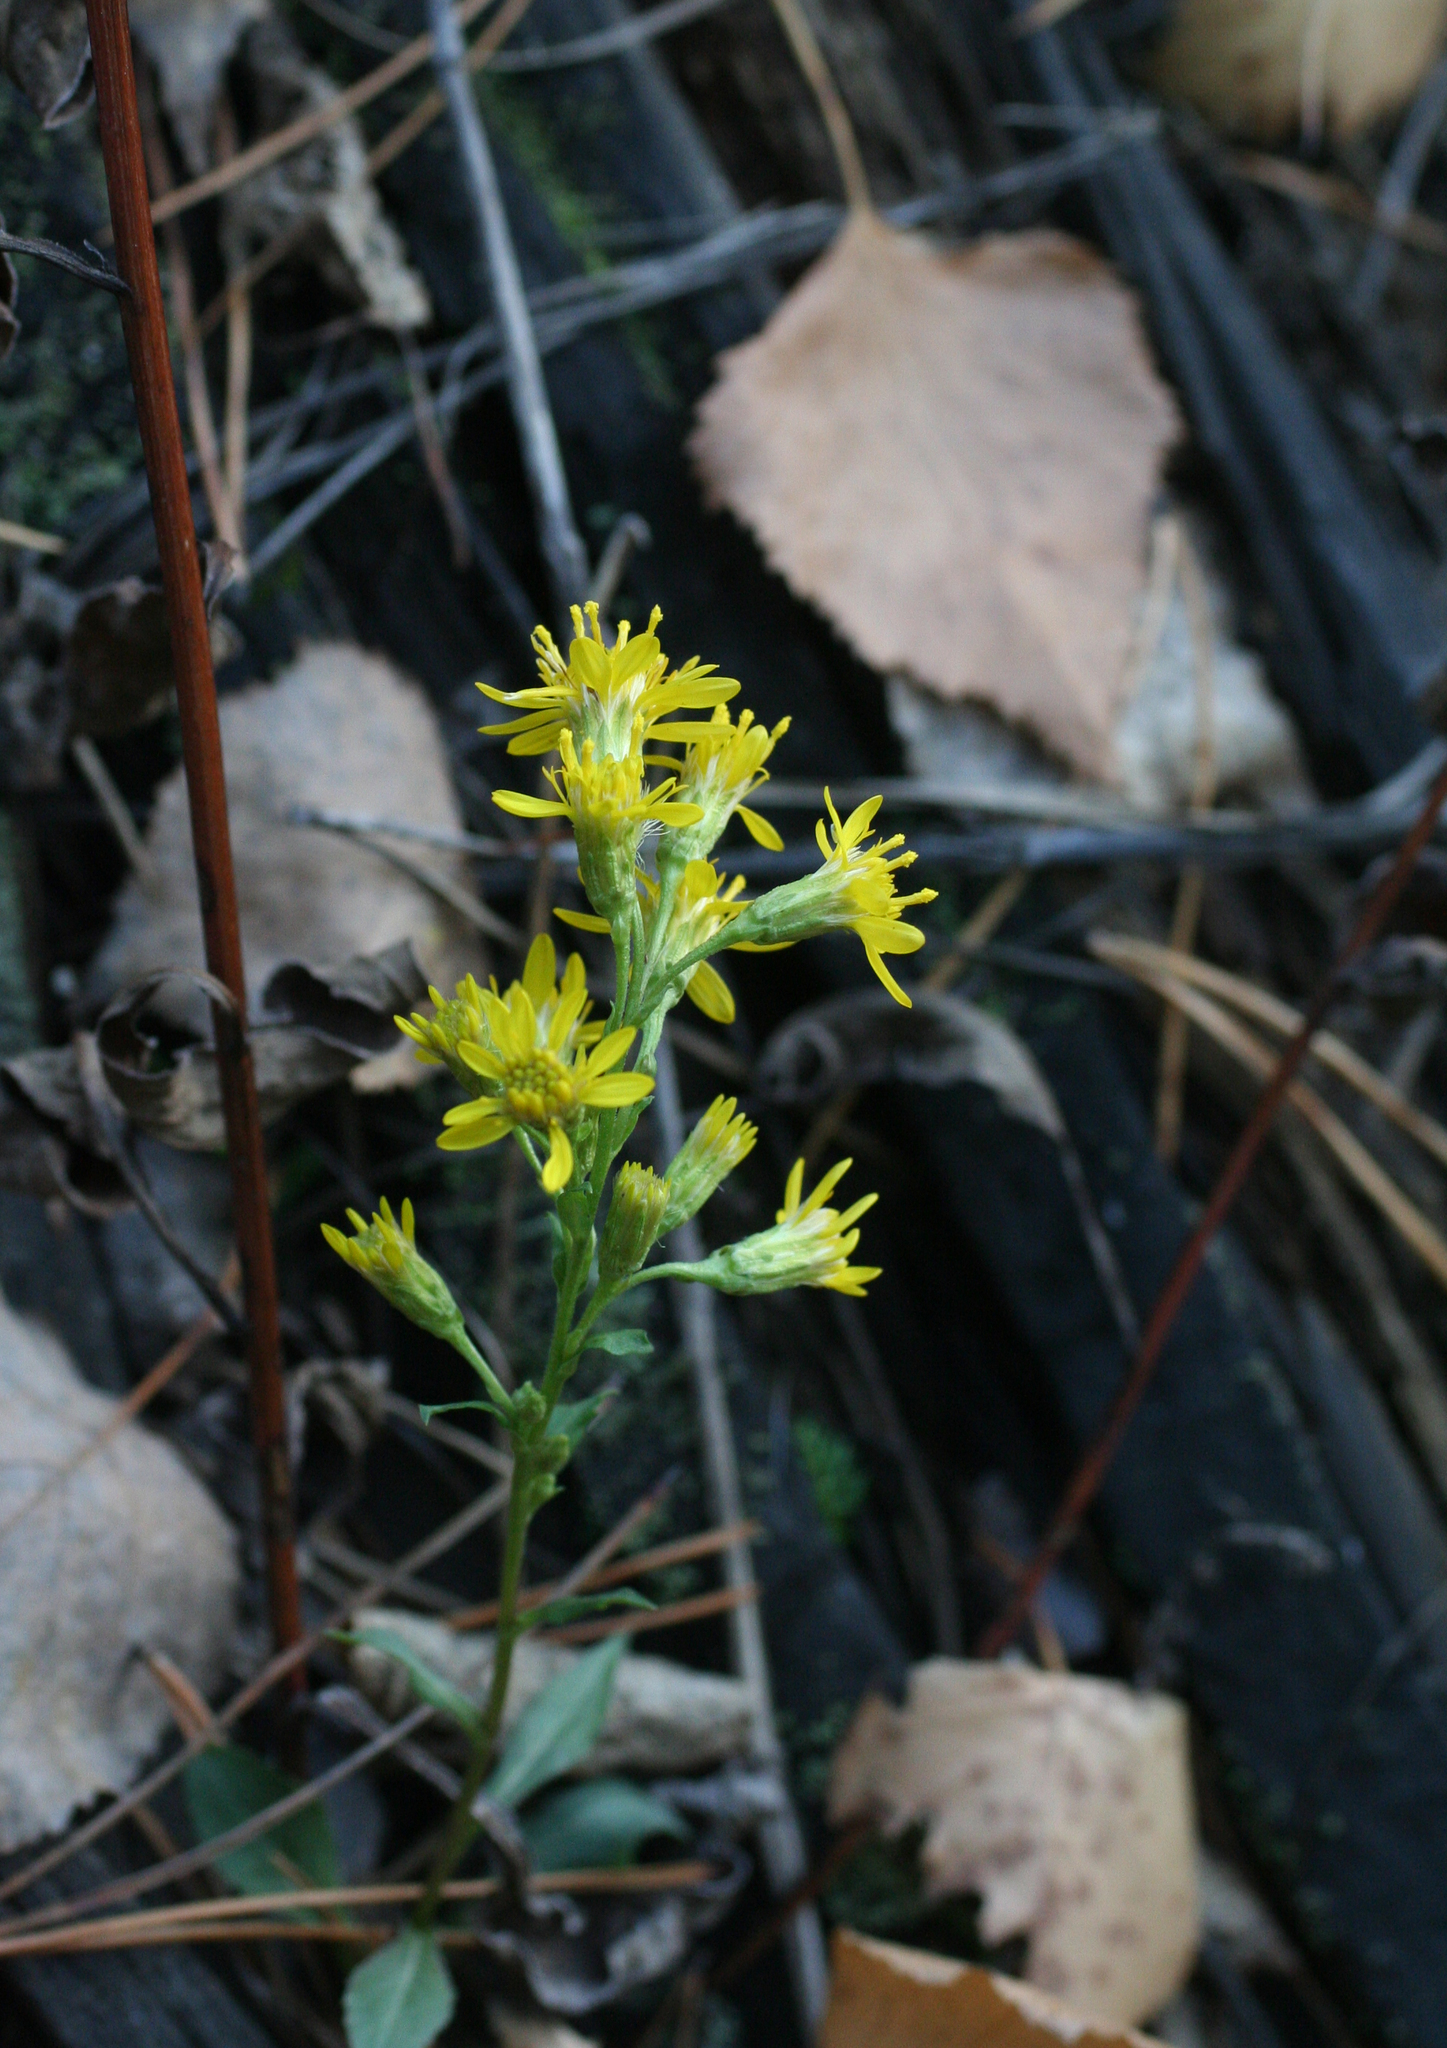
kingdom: Plantae
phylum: Tracheophyta
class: Magnoliopsida
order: Asterales
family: Asteraceae
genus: Solidago
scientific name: Solidago virgaurea
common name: Goldenrod
